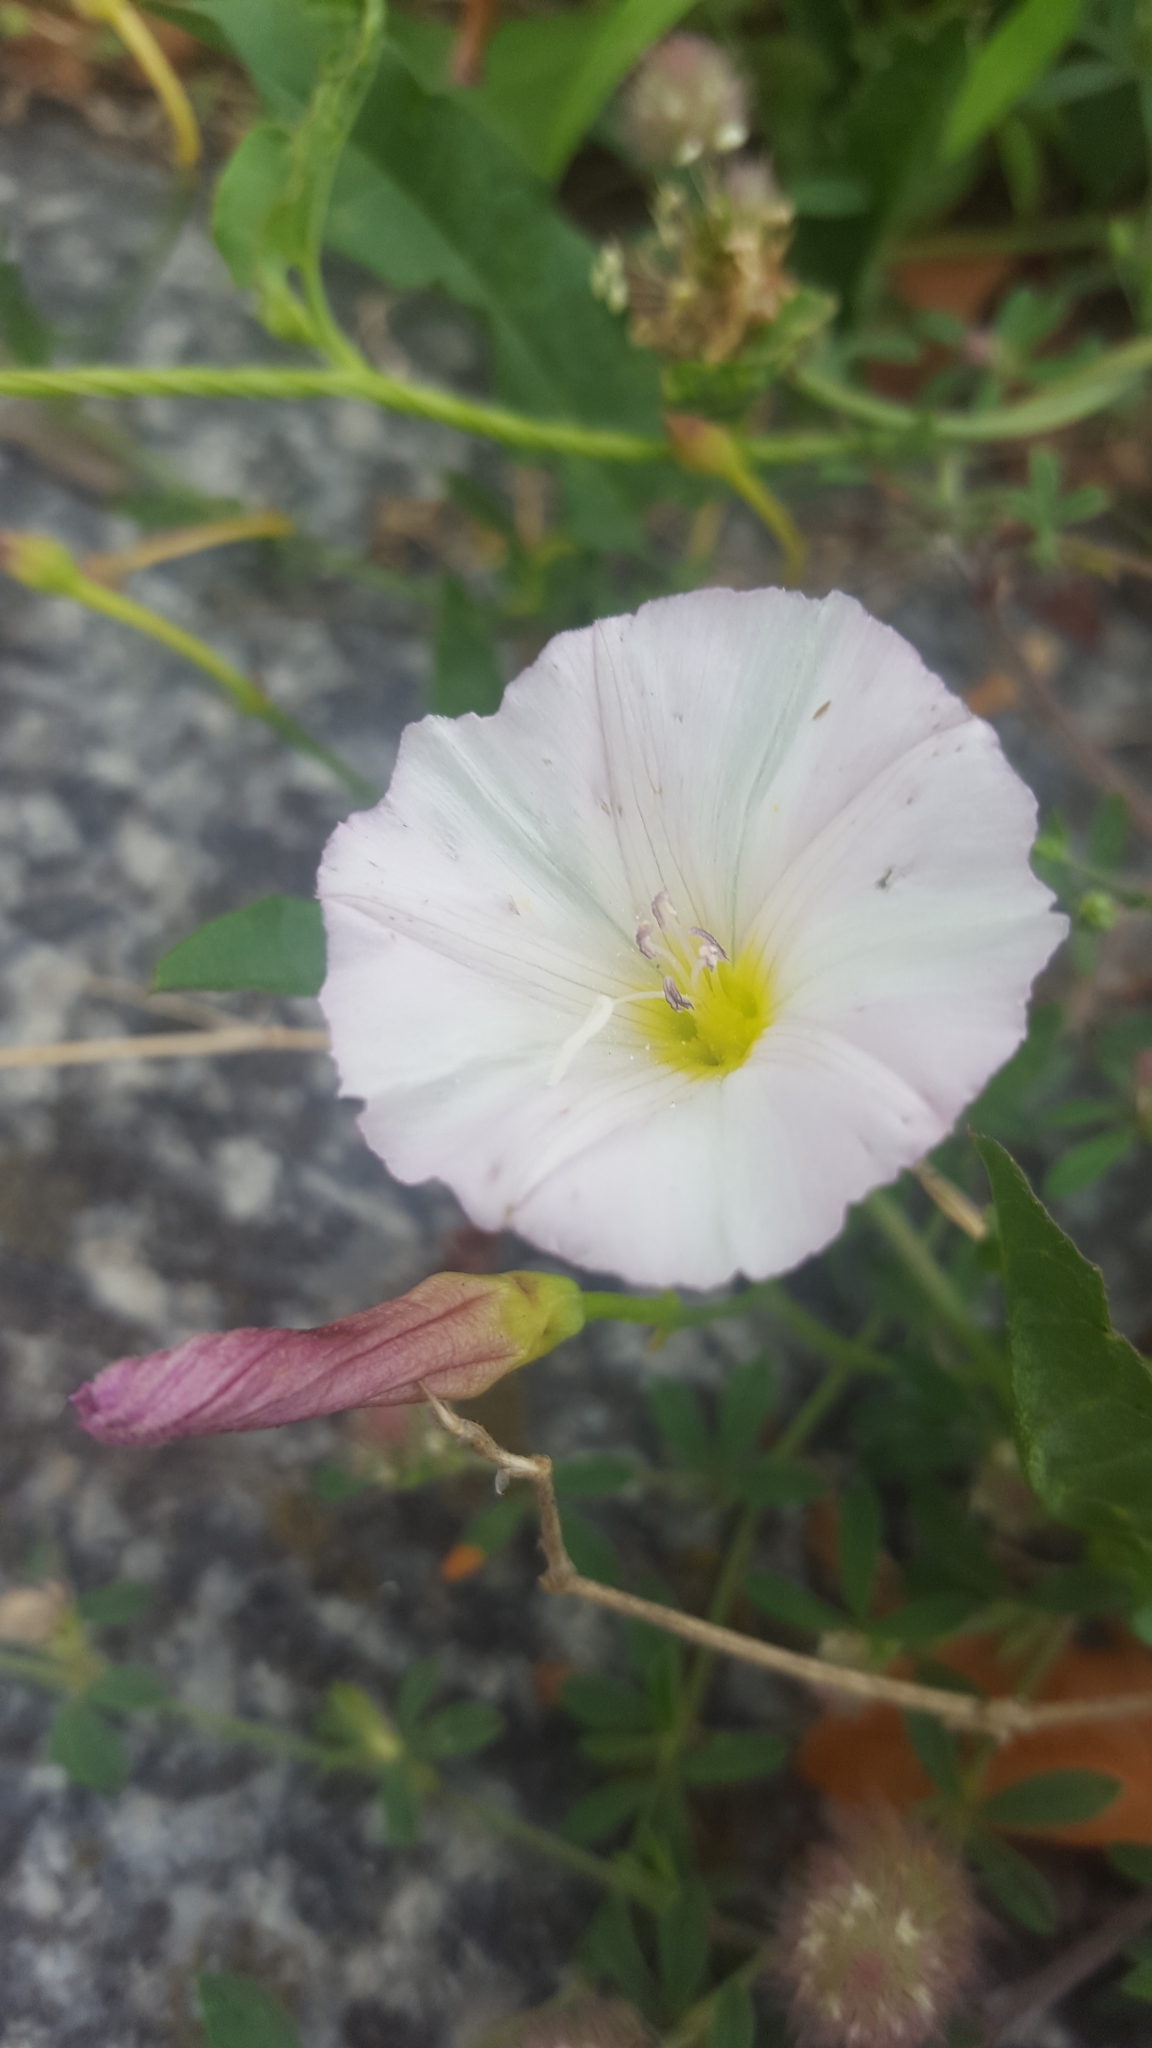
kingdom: Plantae
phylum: Tracheophyta
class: Magnoliopsida
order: Solanales
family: Convolvulaceae
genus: Convolvulus
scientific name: Convolvulus arvensis
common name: Field bindweed
